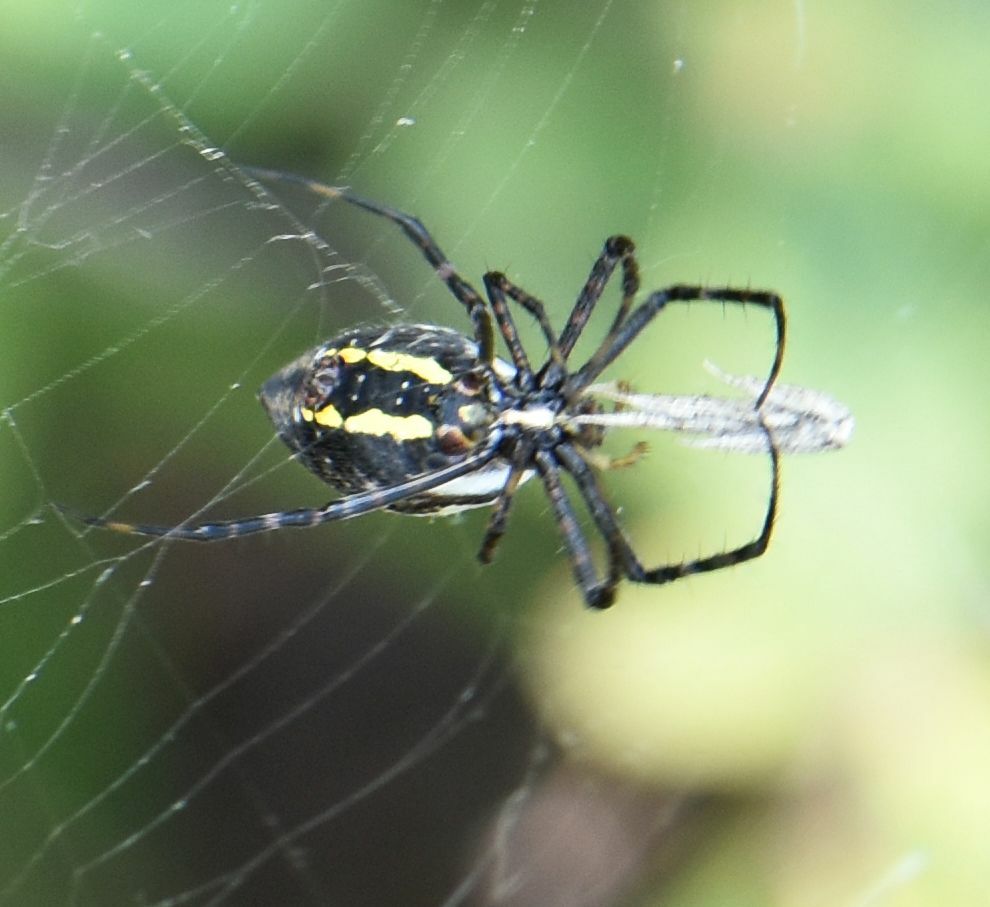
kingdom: Animalia
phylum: Arthropoda
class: Arachnida
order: Araneae
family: Araneidae
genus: Argiope
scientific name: Argiope trifasciata
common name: Banded garden spider
